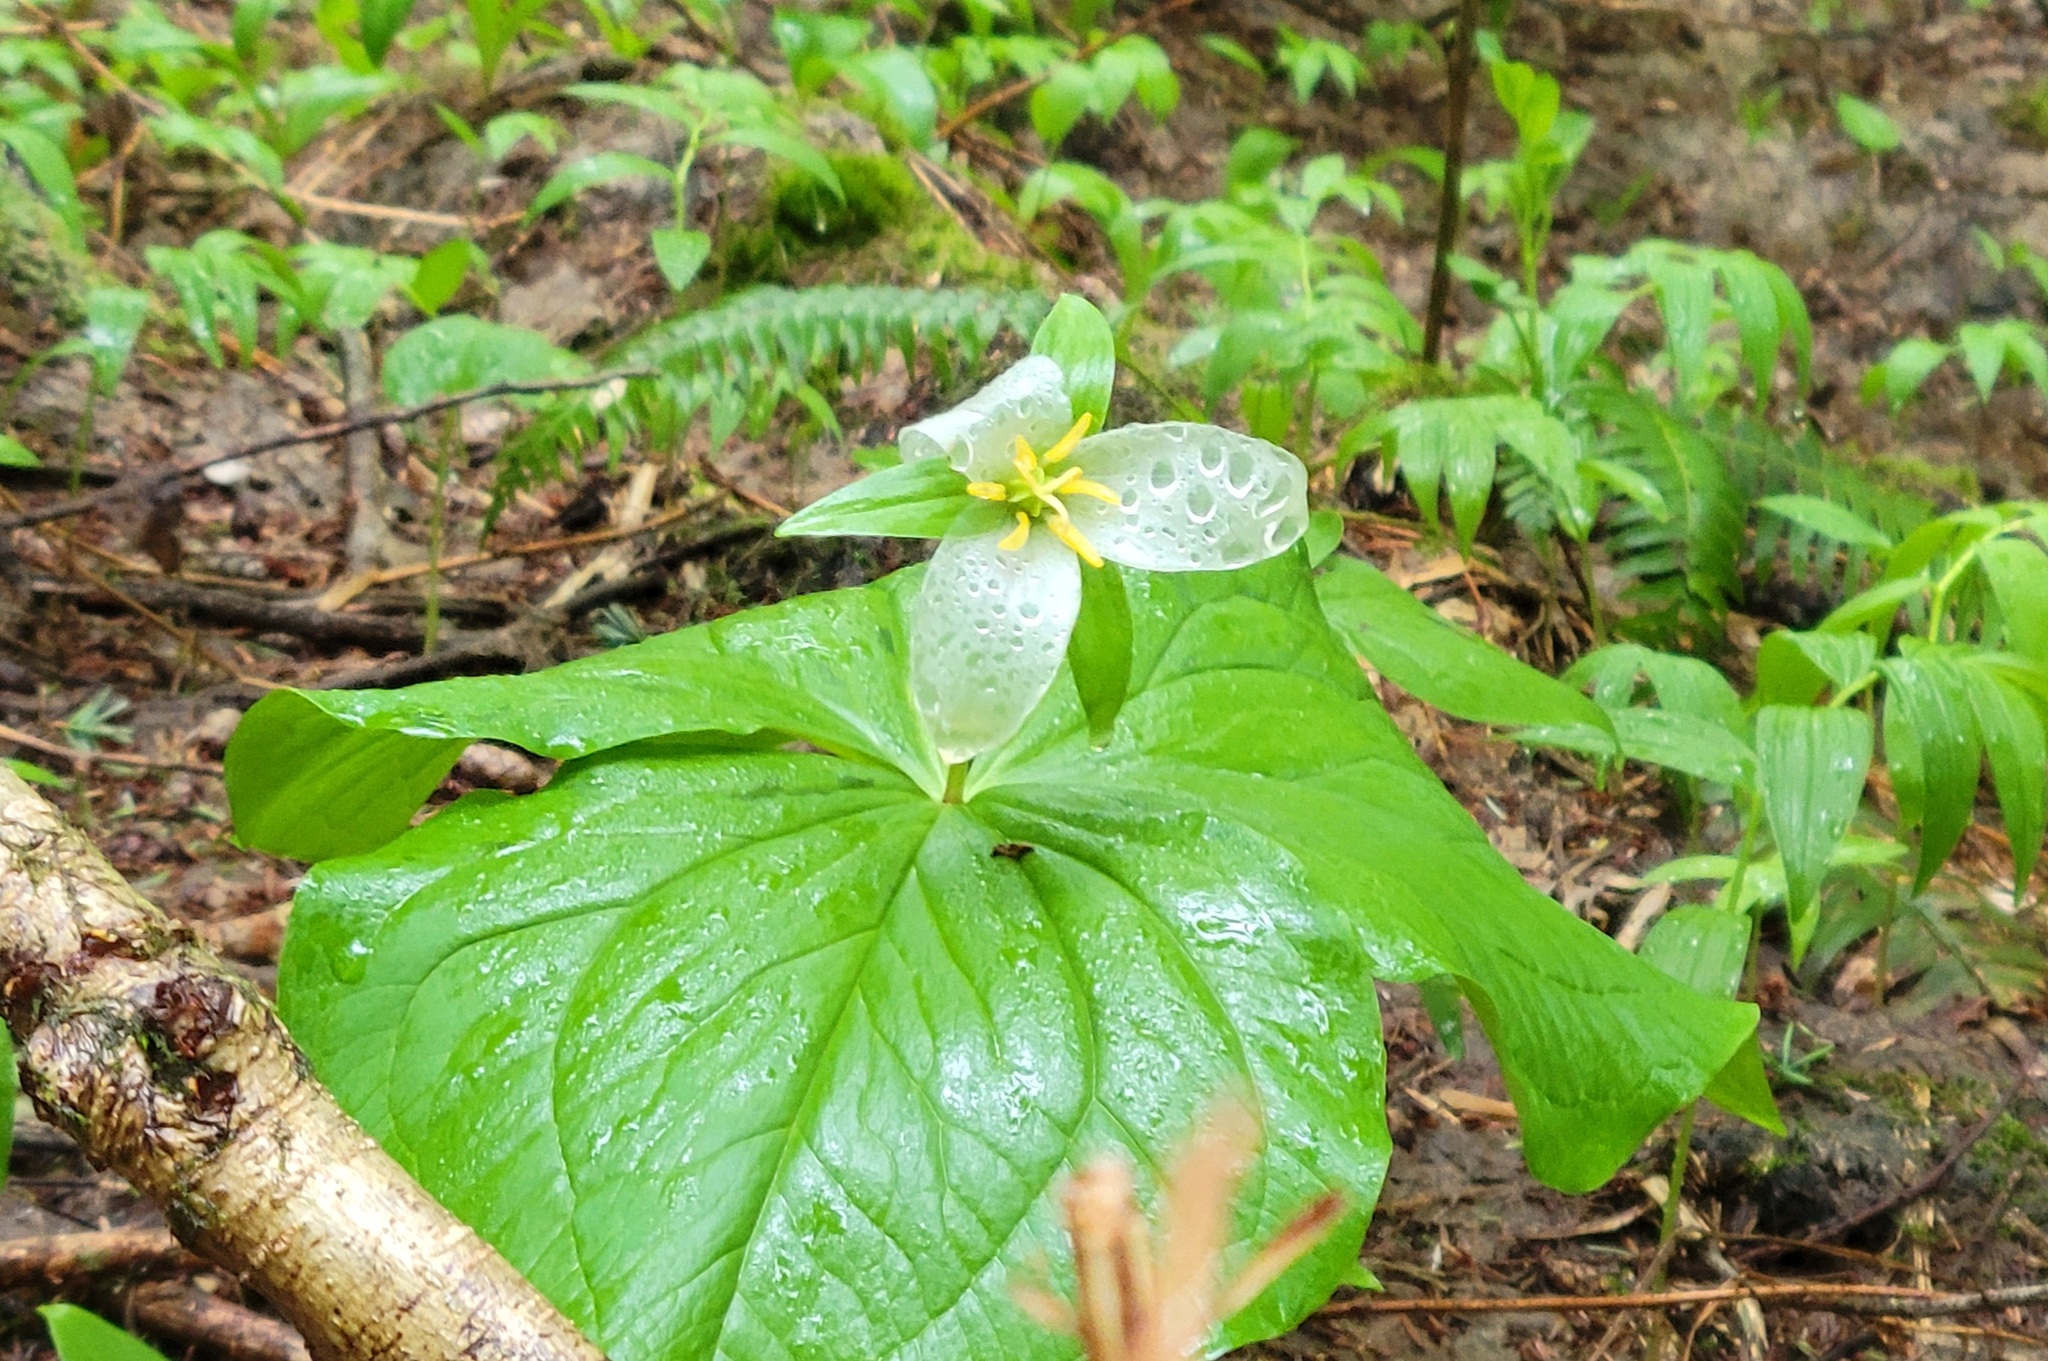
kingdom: Plantae
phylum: Tracheophyta
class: Liliopsida
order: Liliales
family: Melanthiaceae
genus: Trillium
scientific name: Trillium ovatum
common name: Pacific trillium
